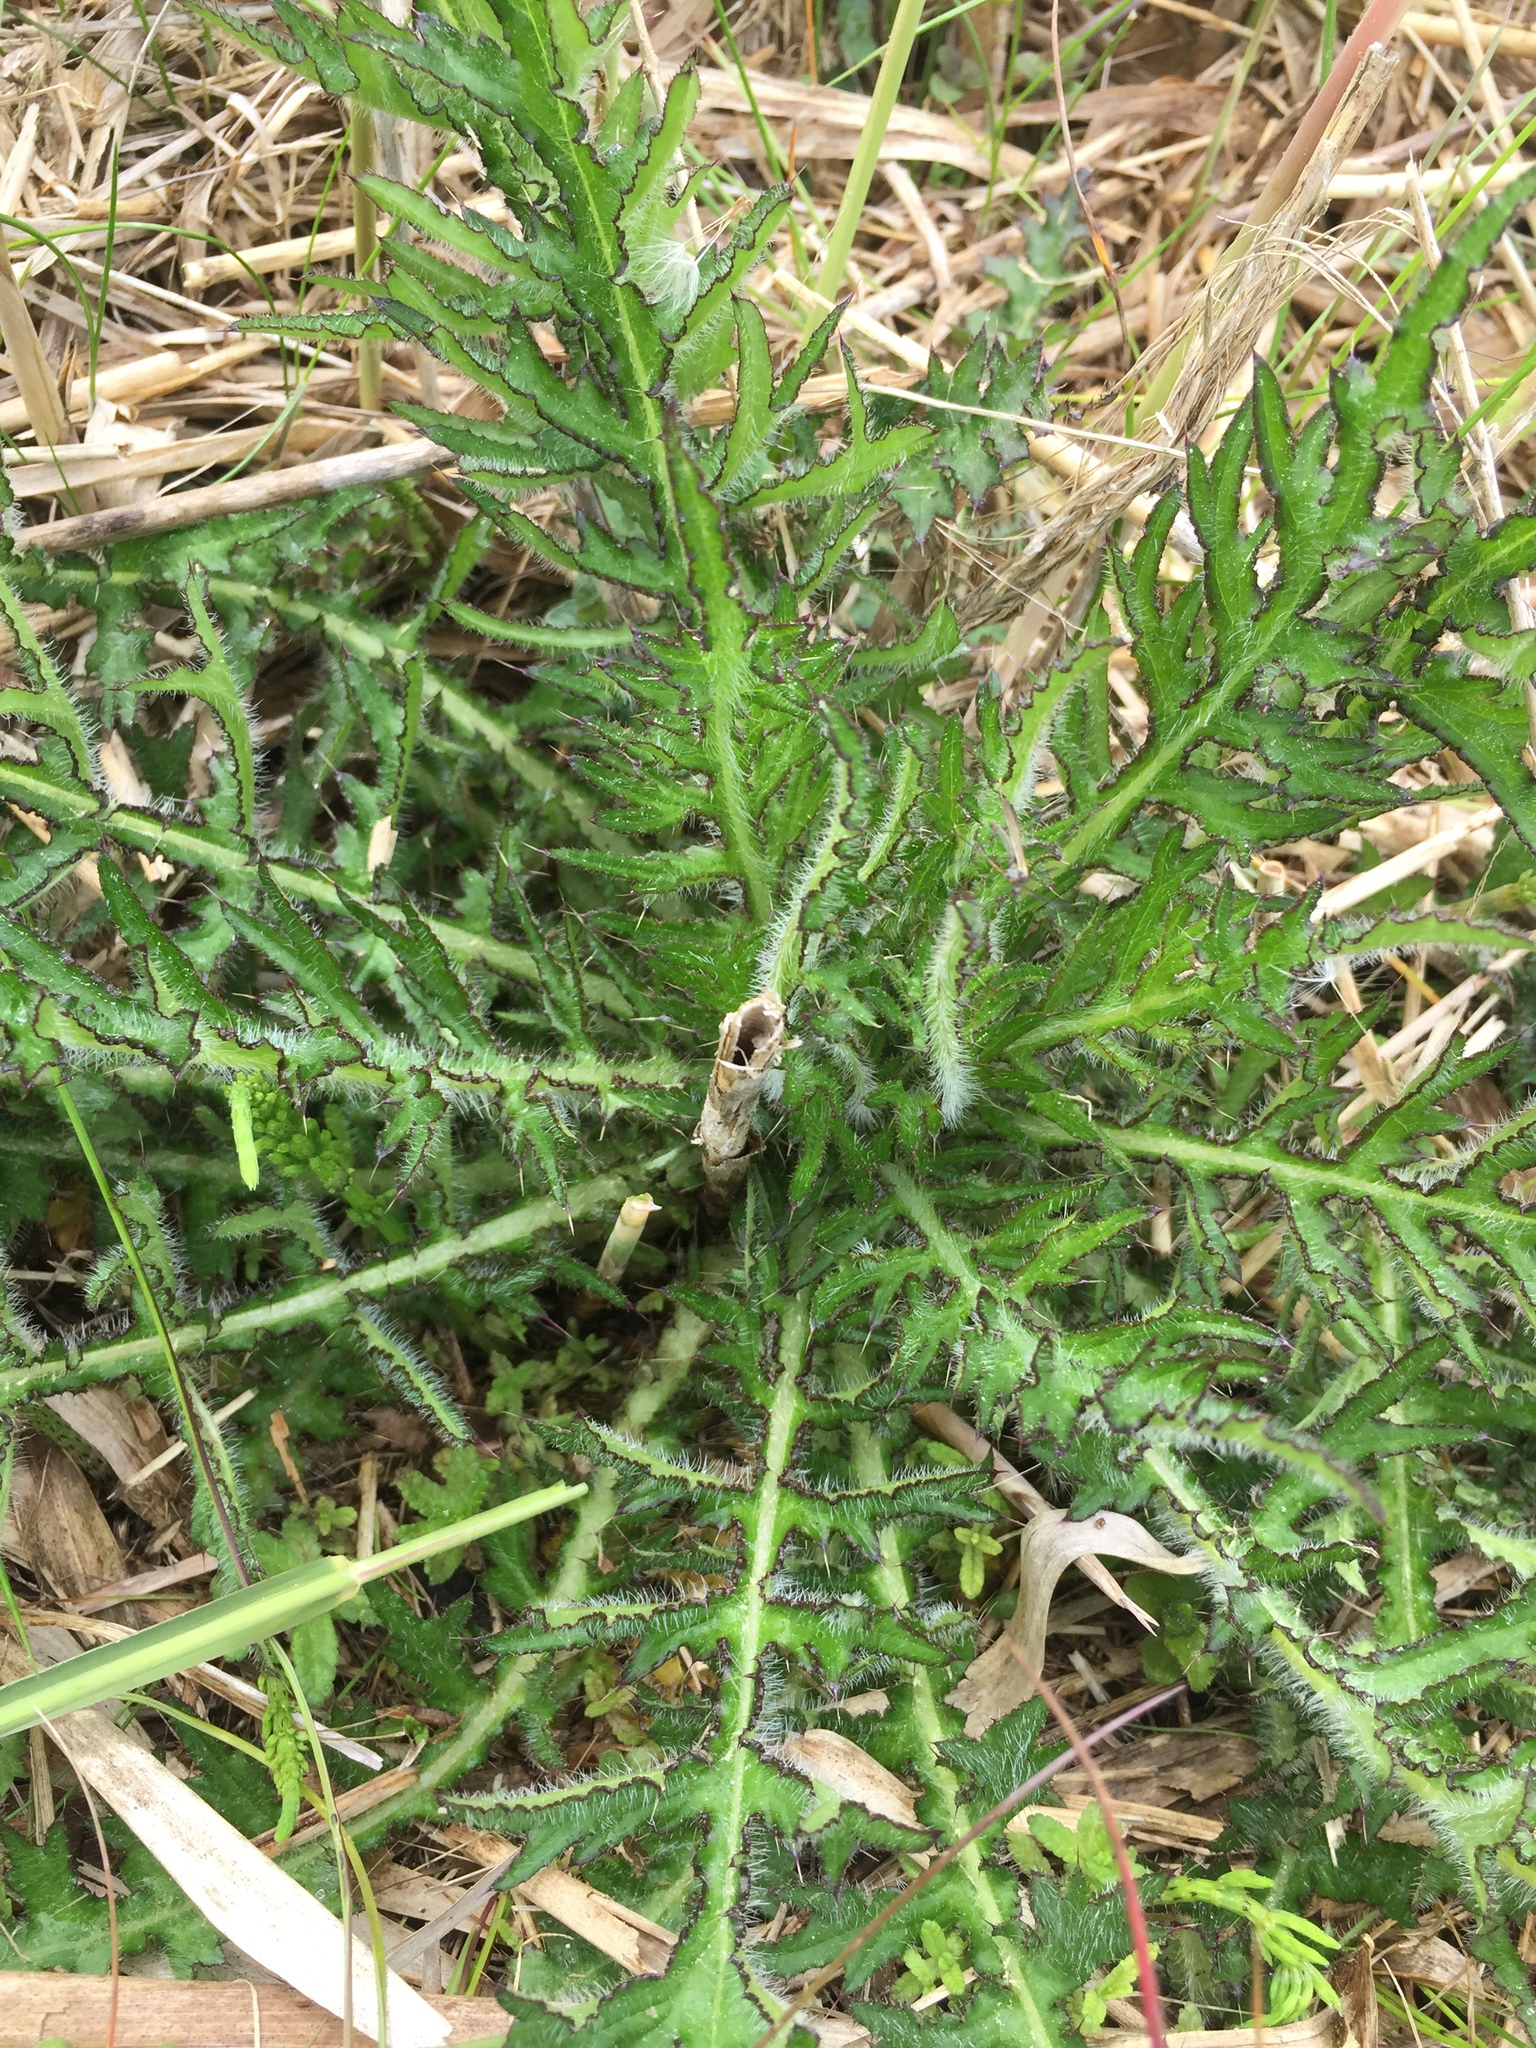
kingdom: Plantae
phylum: Tracheophyta
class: Magnoliopsida
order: Asterales
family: Asteraceae
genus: Cirsium
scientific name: Cirsium palustre
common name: Marsh thistle
